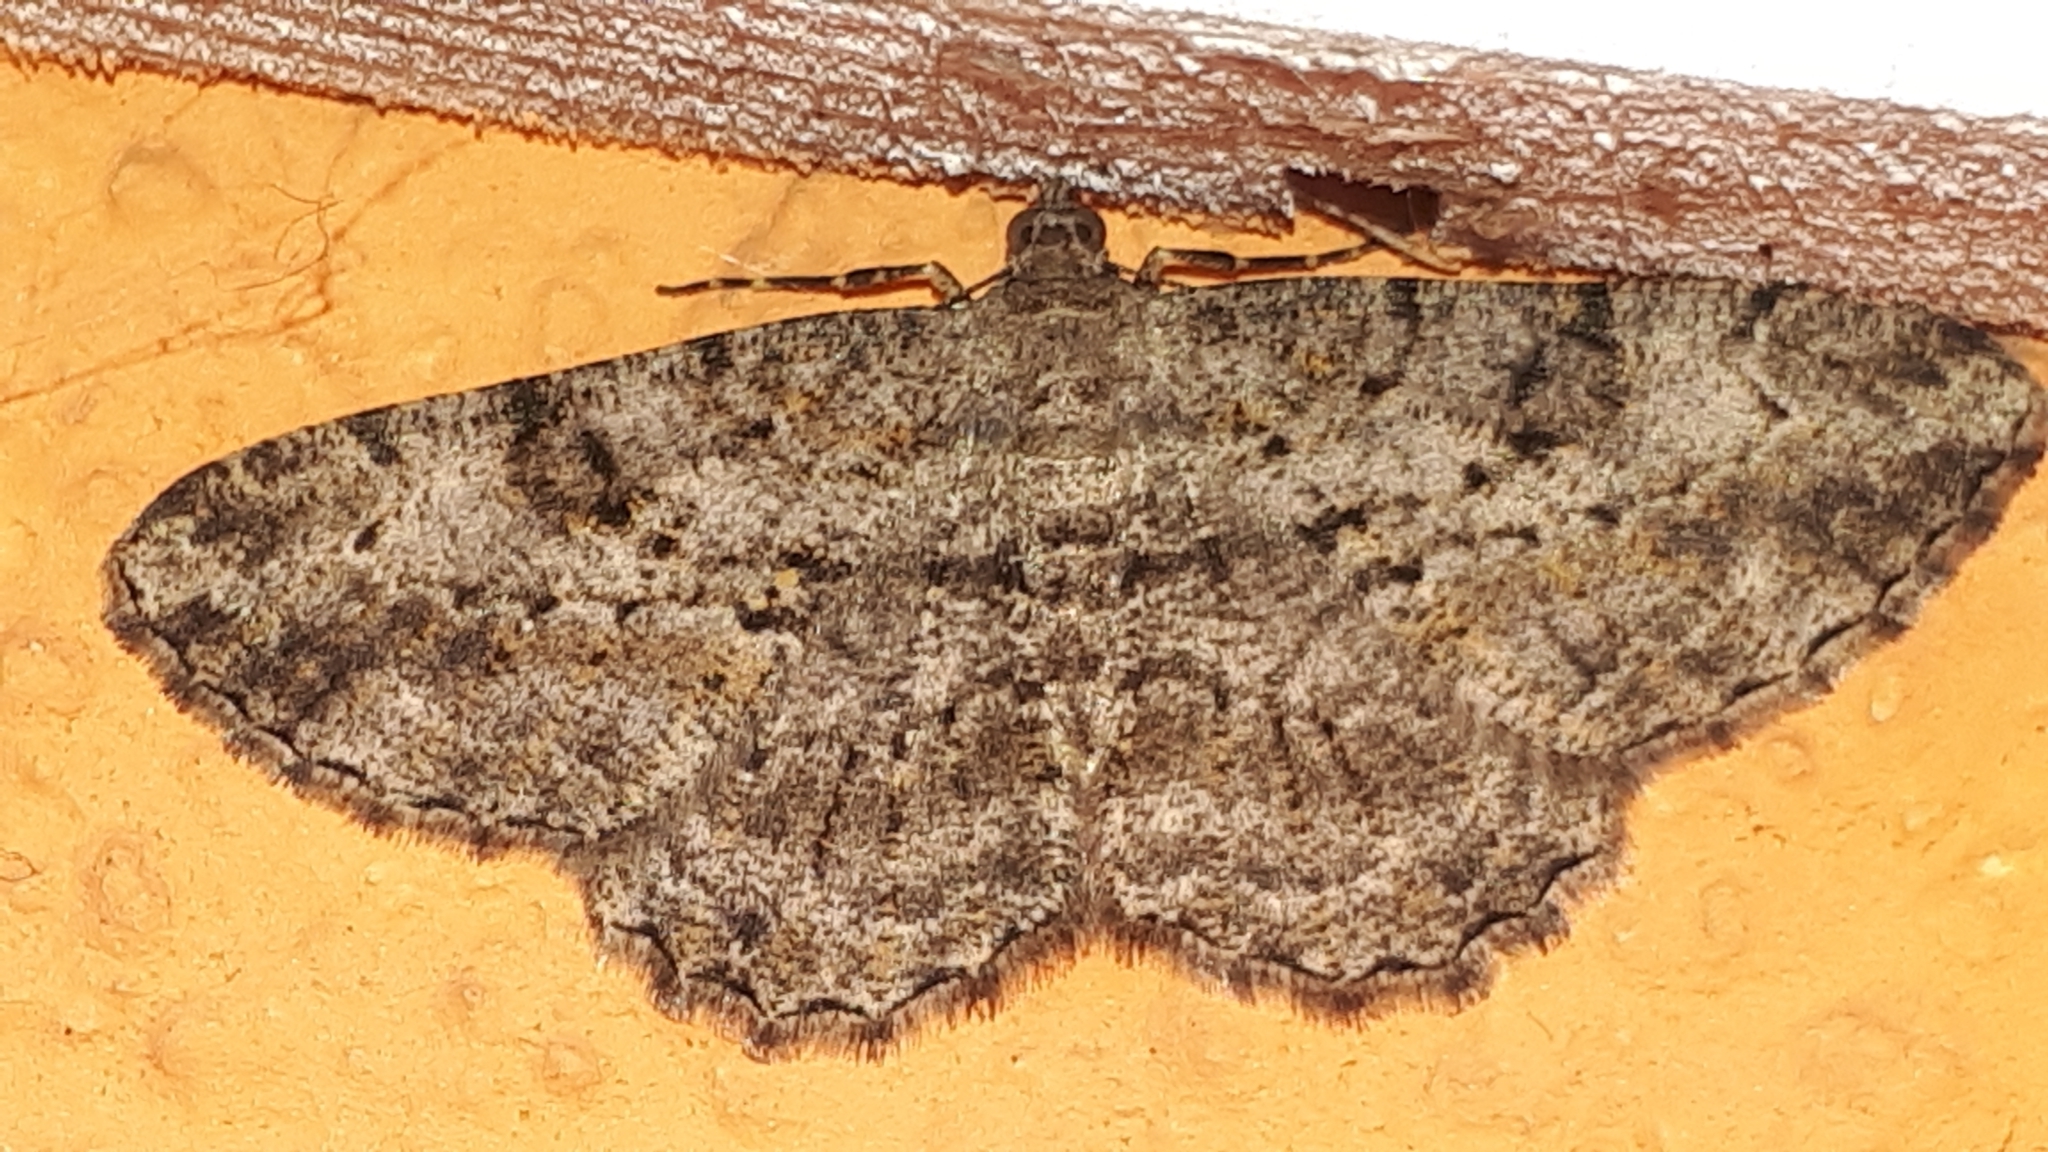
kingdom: Animalia
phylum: Arthropoda
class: Insecta
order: Lepidoptera
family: Geometridae
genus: Peribatodes
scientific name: Peribatodes rhomboidaria
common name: Willow beauty
